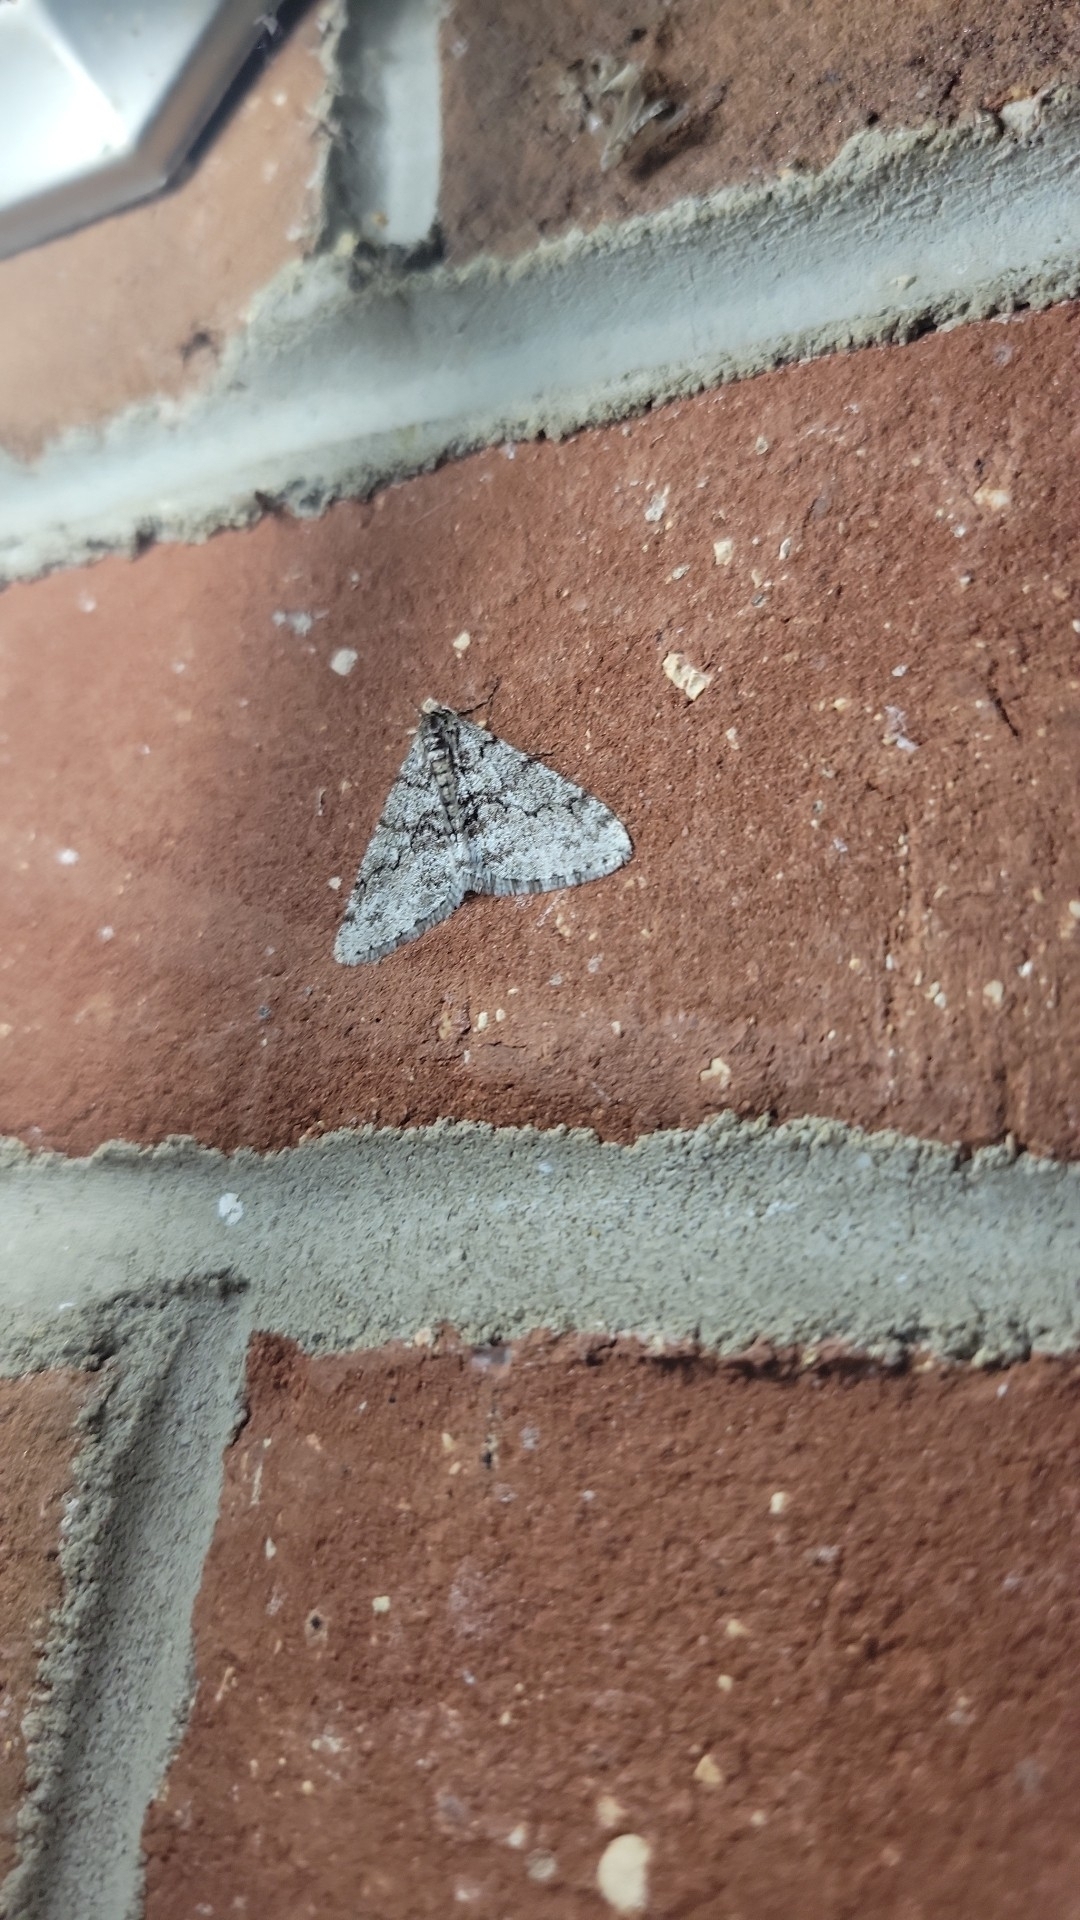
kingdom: Animalia
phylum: Arthropoda
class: Insecta
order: Lepidoptera
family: Geometridae
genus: Phigalia
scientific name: Phigalia denticulata
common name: Toothed phigalia
